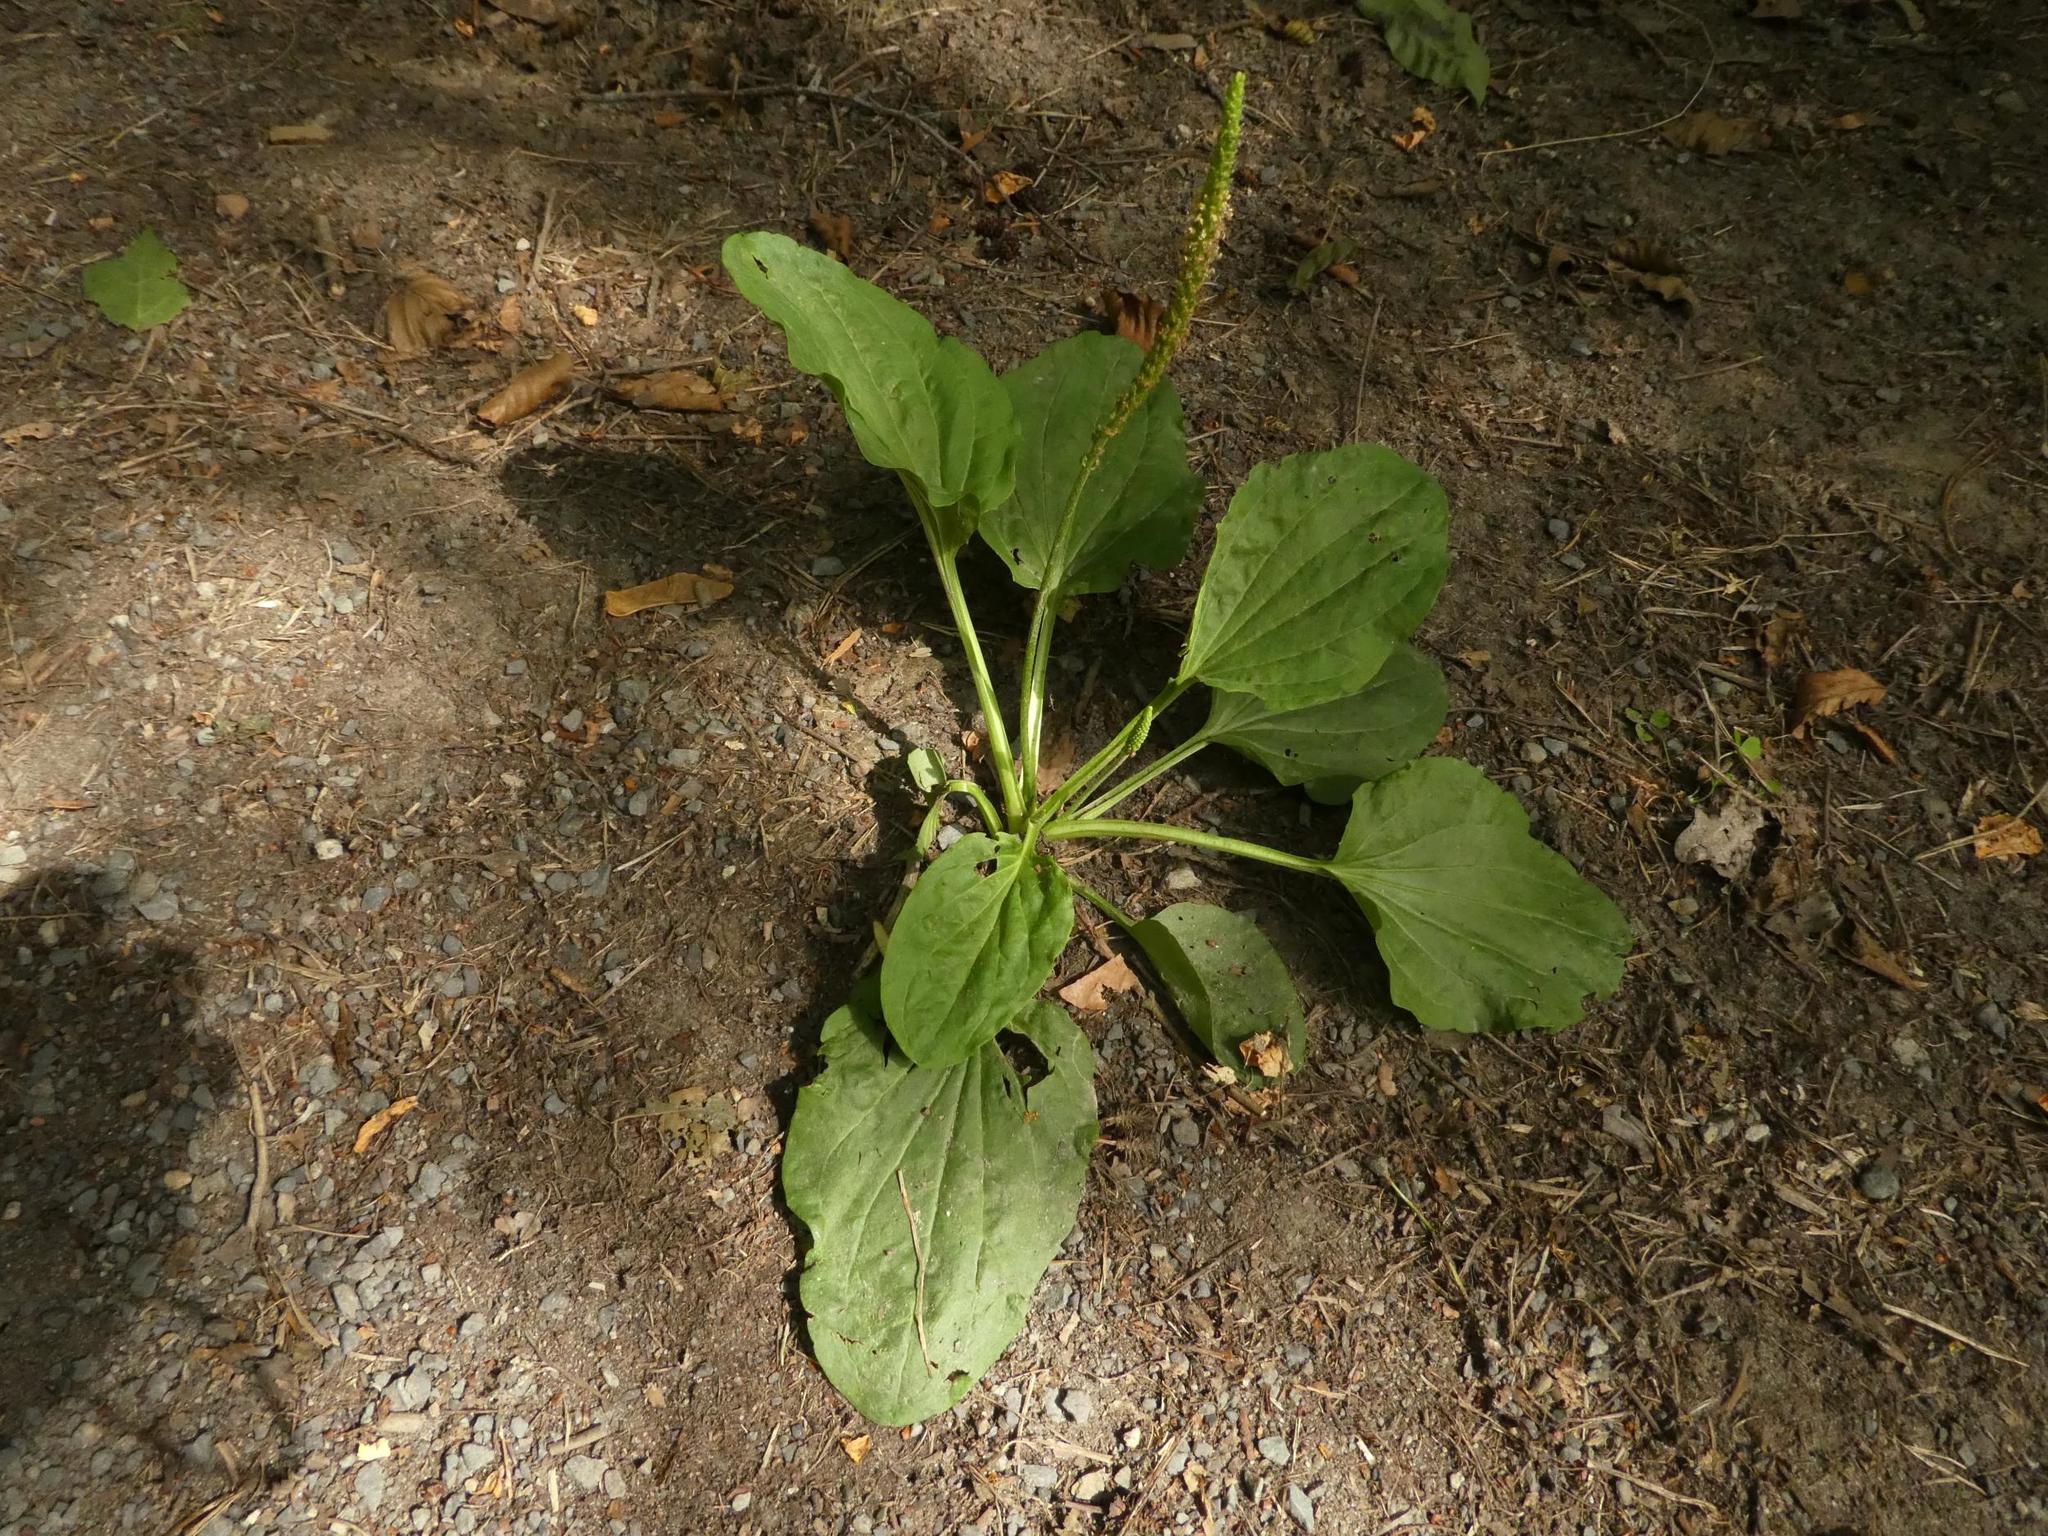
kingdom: Plantae
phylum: Tracheophyta
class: Magnoliopsida
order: Lamiales
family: Plantaginaceae
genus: Plantago
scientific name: Plantago major
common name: Common plantain
